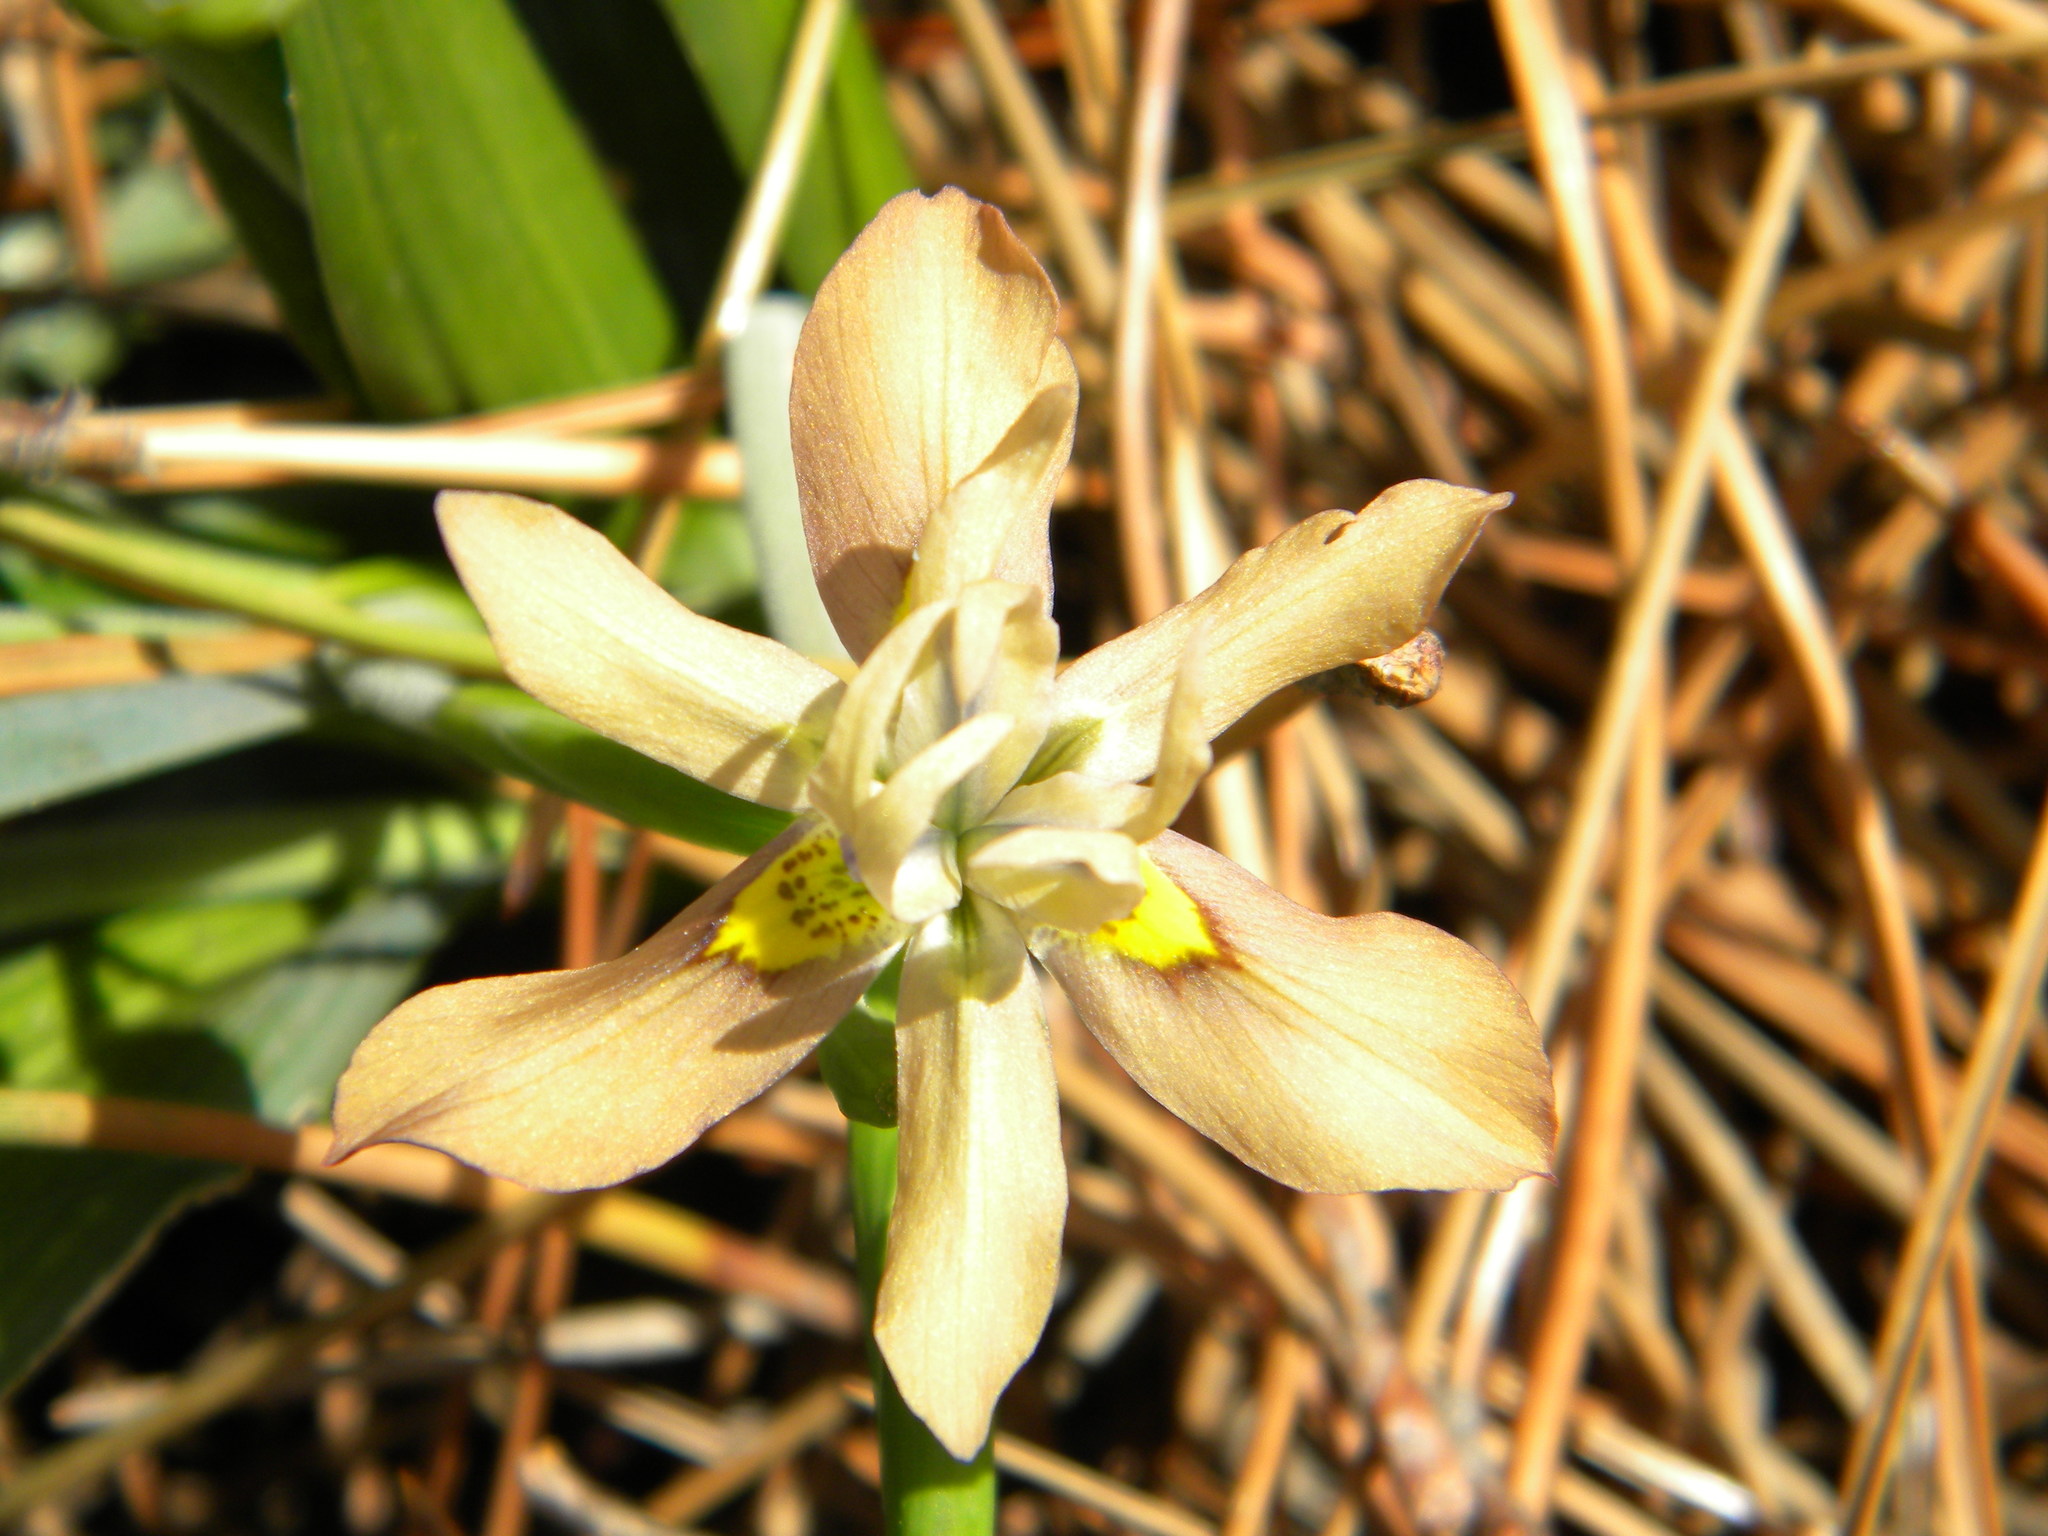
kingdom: Plantae
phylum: Tracheophyta
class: Liliopsida
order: Asparagales
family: Iridaceae
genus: Moraea
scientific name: Moraea vegeta
